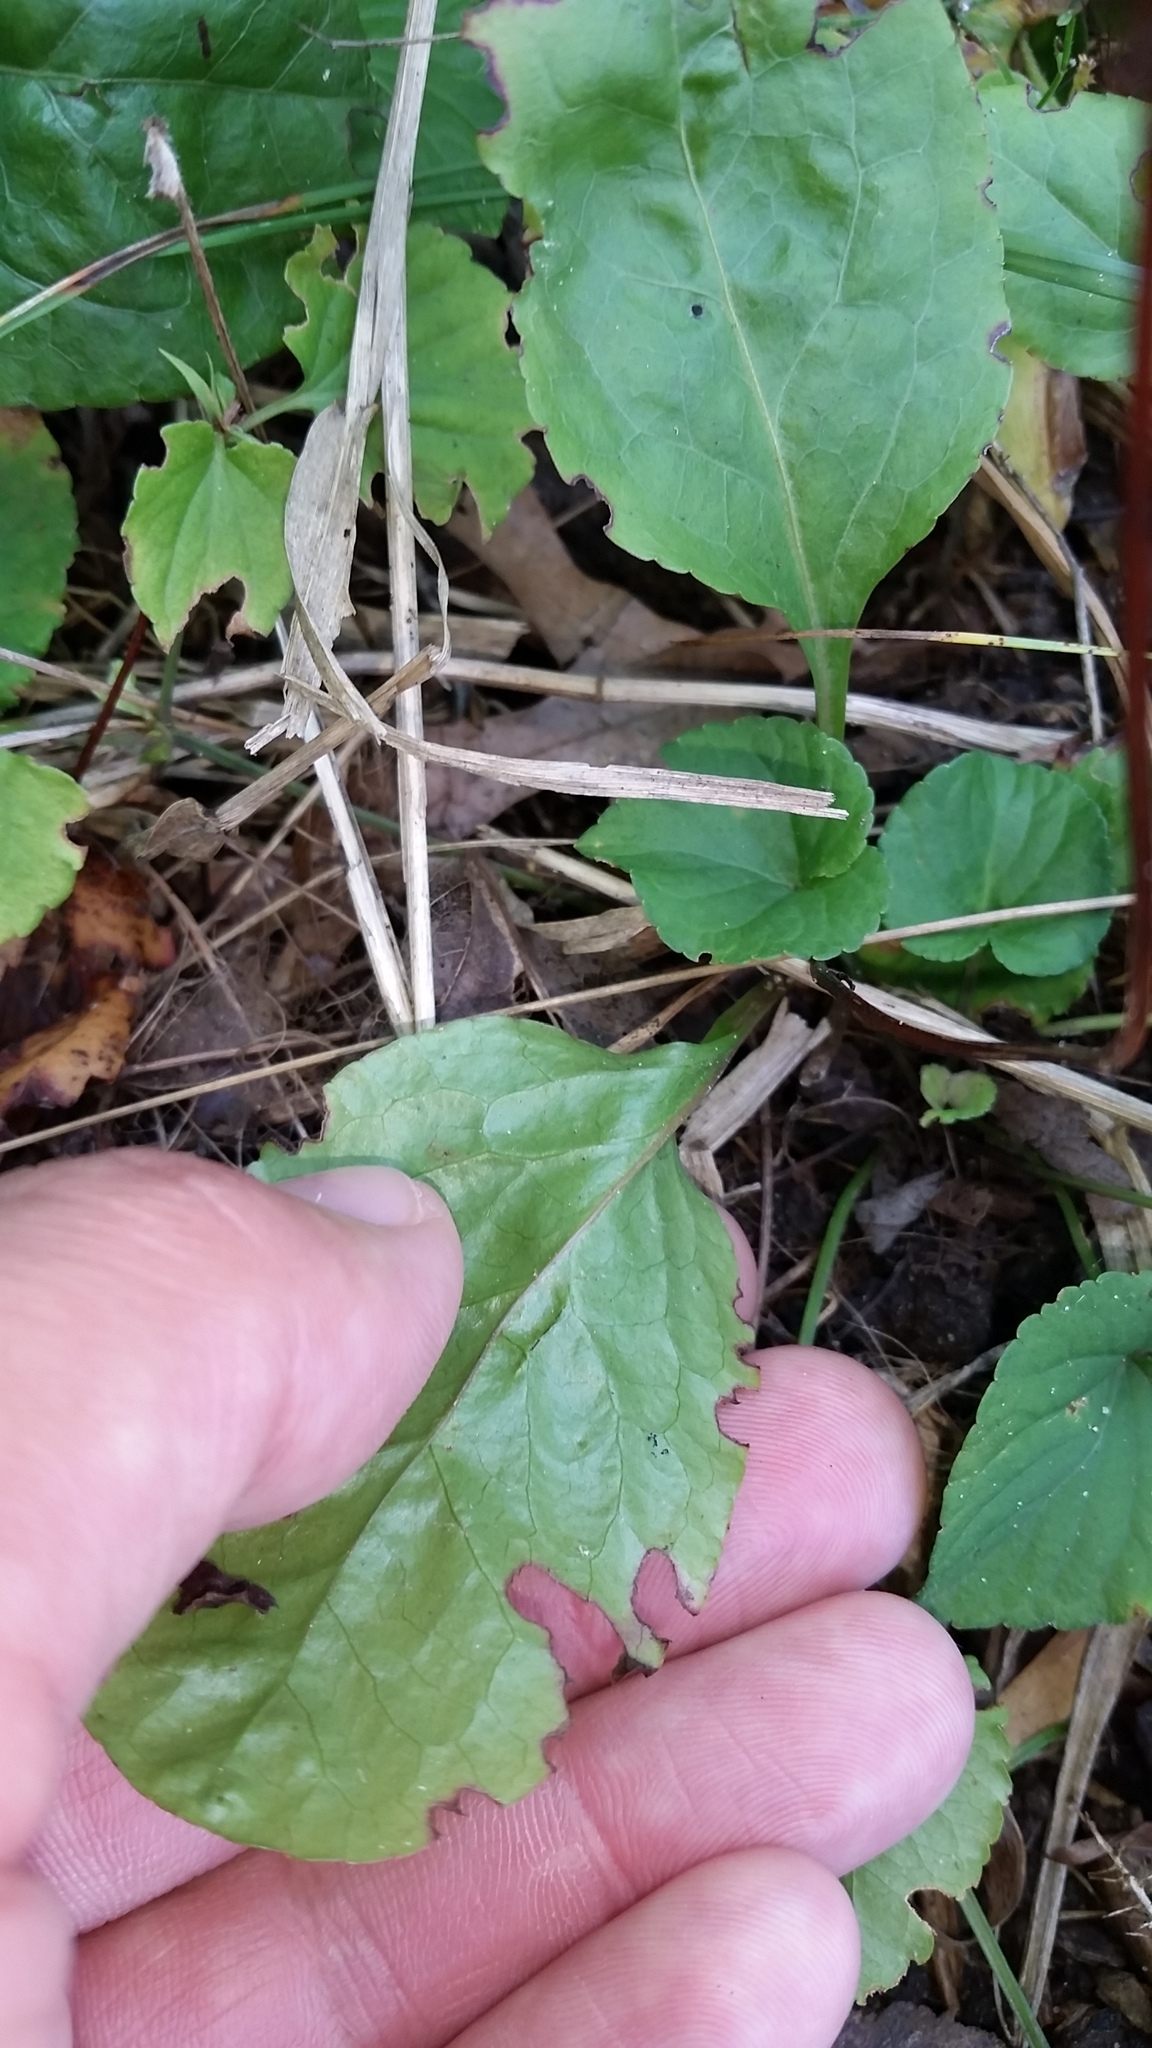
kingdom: Plantae
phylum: Tracheophyta
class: Magnoliopsida
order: Ericales
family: Ericaceae
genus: Pyrola
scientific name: Pyrola elliptica
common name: Shinleaf
